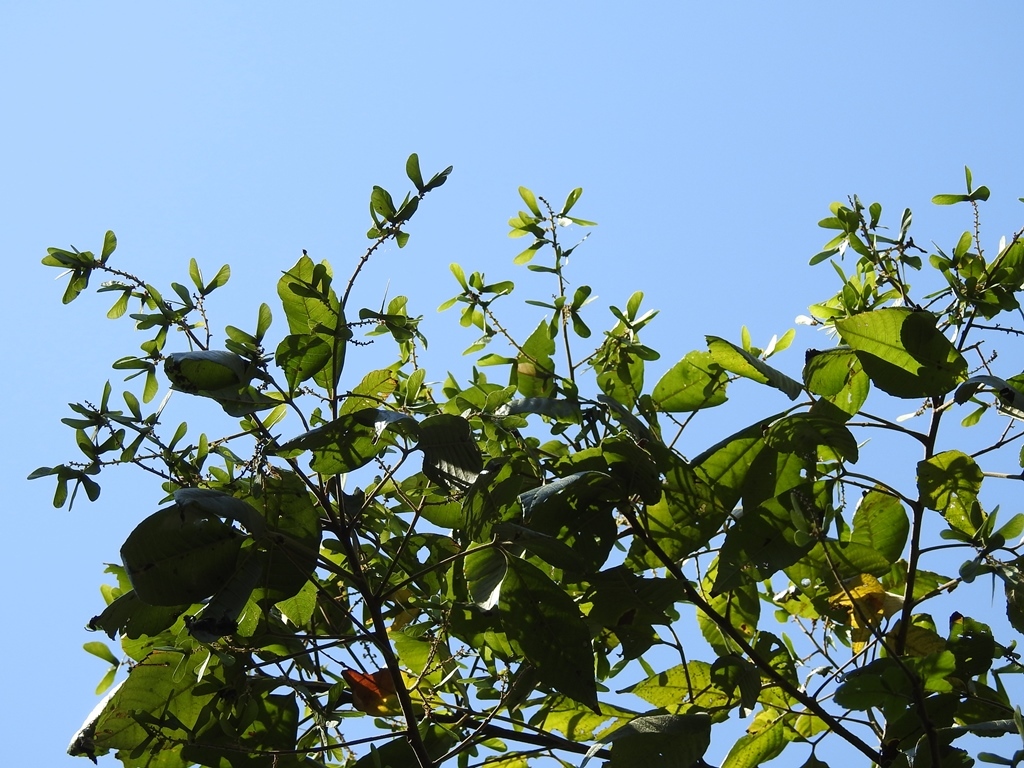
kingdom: Plantae
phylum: Tracheophyta
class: Magnoliopsida
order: Sapindales
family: Sapindaceae
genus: Thouinia
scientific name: Thouinia serrata
